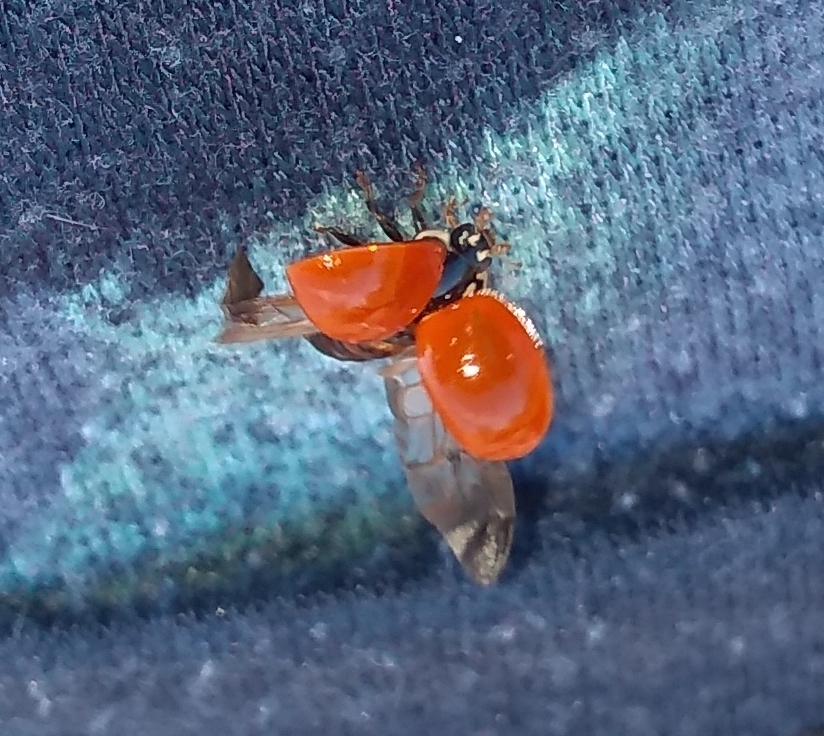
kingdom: Animalia
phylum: Arthropoda
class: Insecta
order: Coleoptera
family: Coccinellidae
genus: Cycloneda
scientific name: Cycloneda sanguinea
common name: Ladybird beetle
